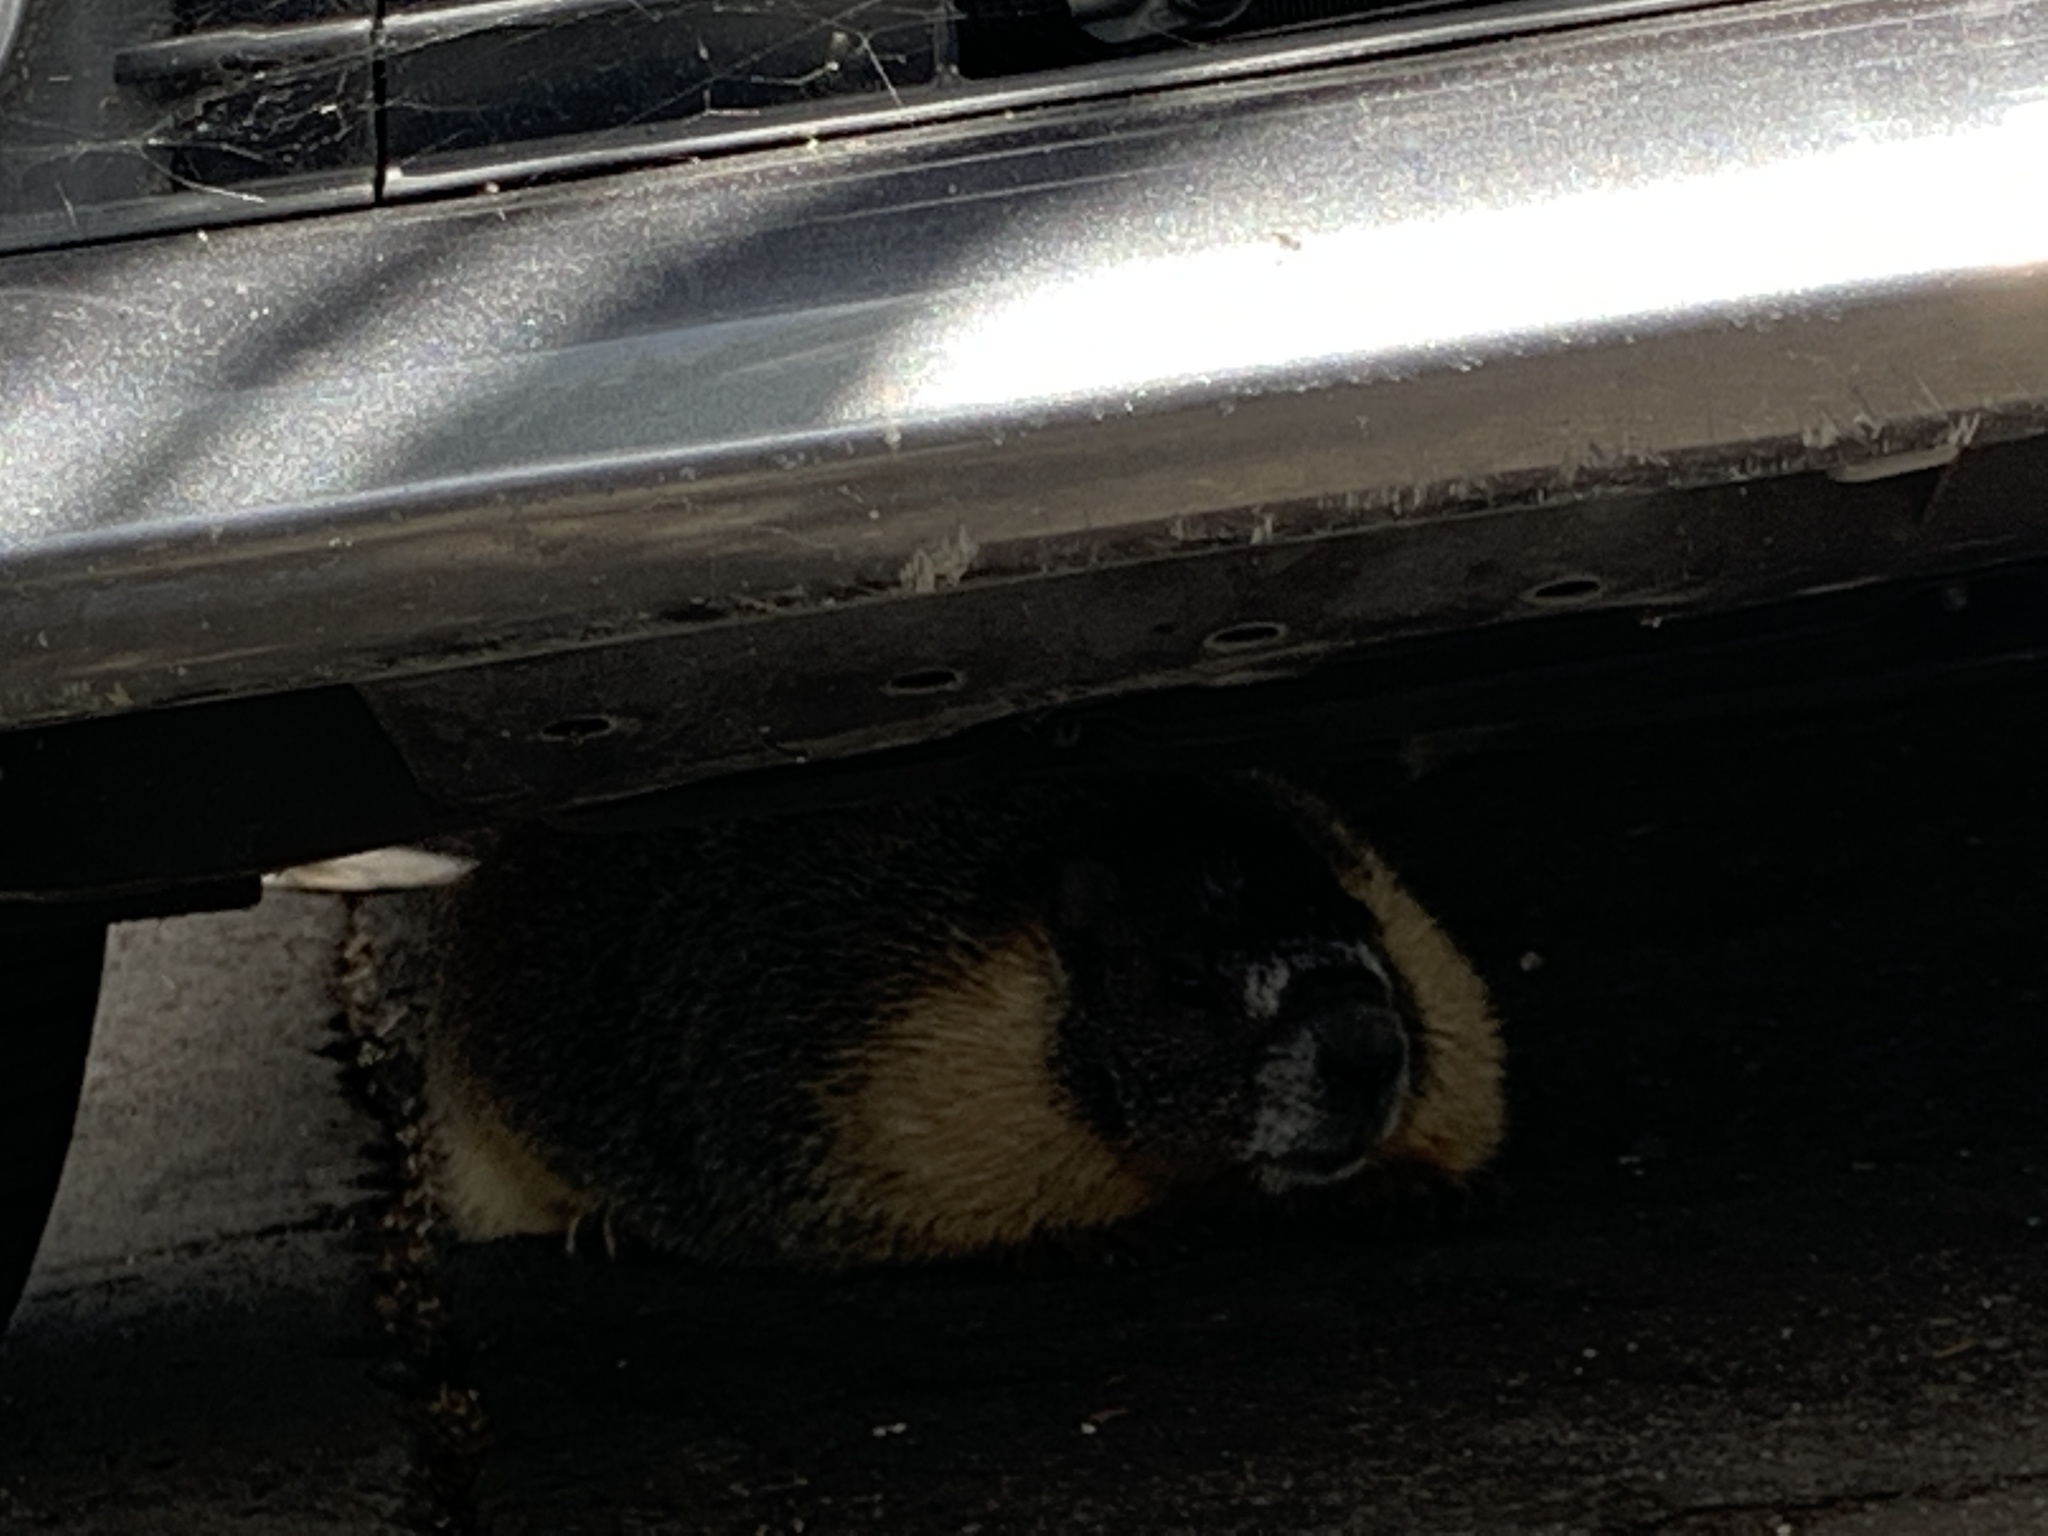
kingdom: Animalia
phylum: Chordata
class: Mammalia
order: Rodentia
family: Sciuridae
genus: Marmota
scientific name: Marmota flaviventris
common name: Yellow-bellied marmot
